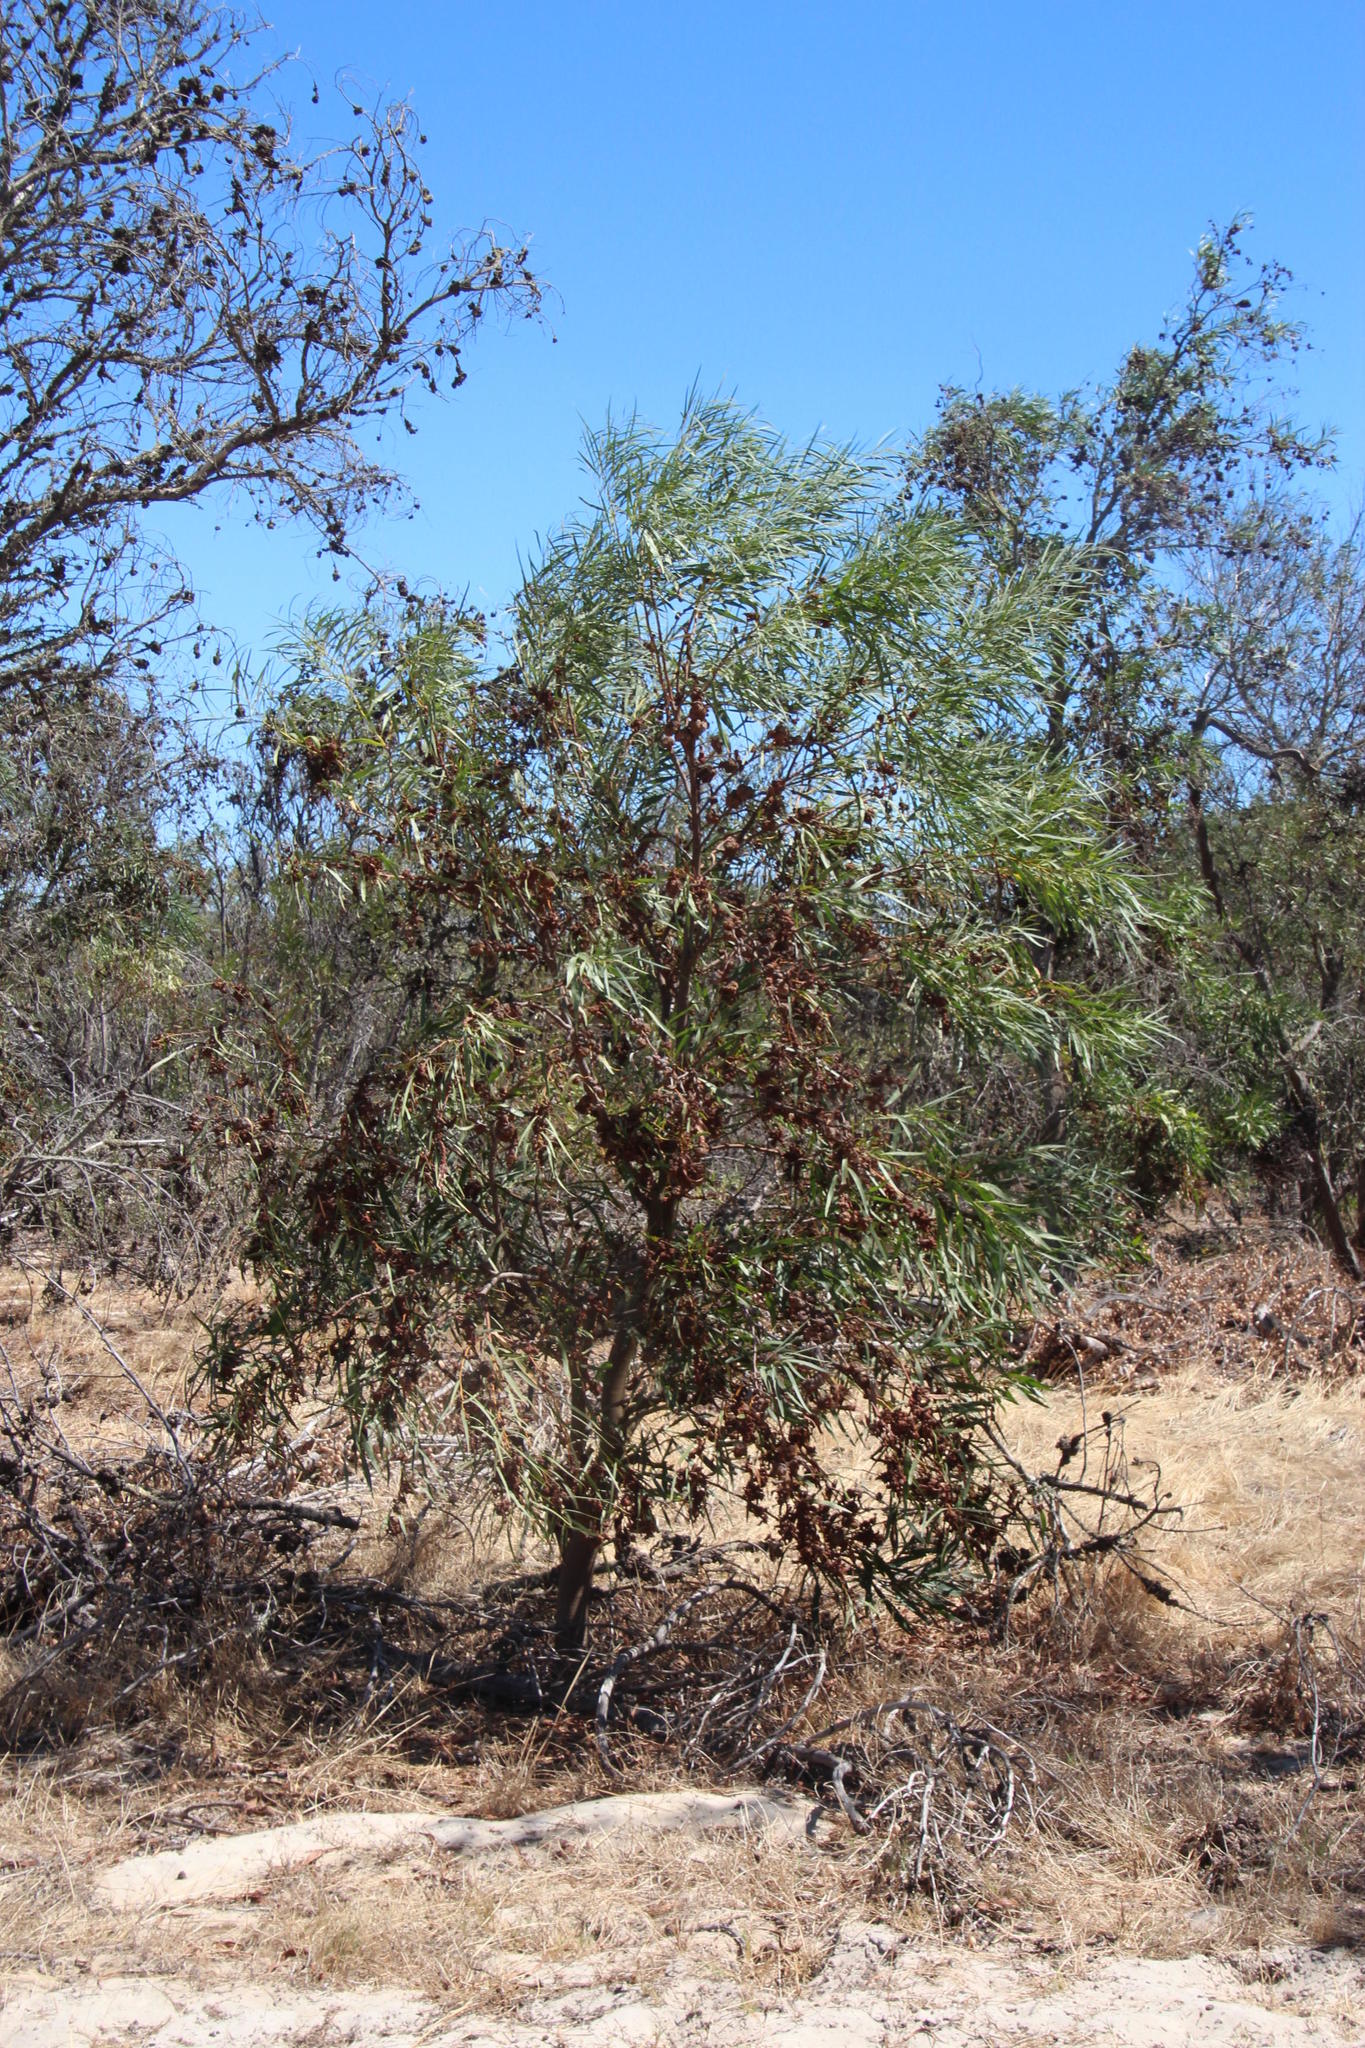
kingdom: Fungi
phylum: Basidiomycota
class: Pucciniomycetes
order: Pucciniales
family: Uromycladiaceae
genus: Uromycladium
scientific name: Uromycladium morrisii
